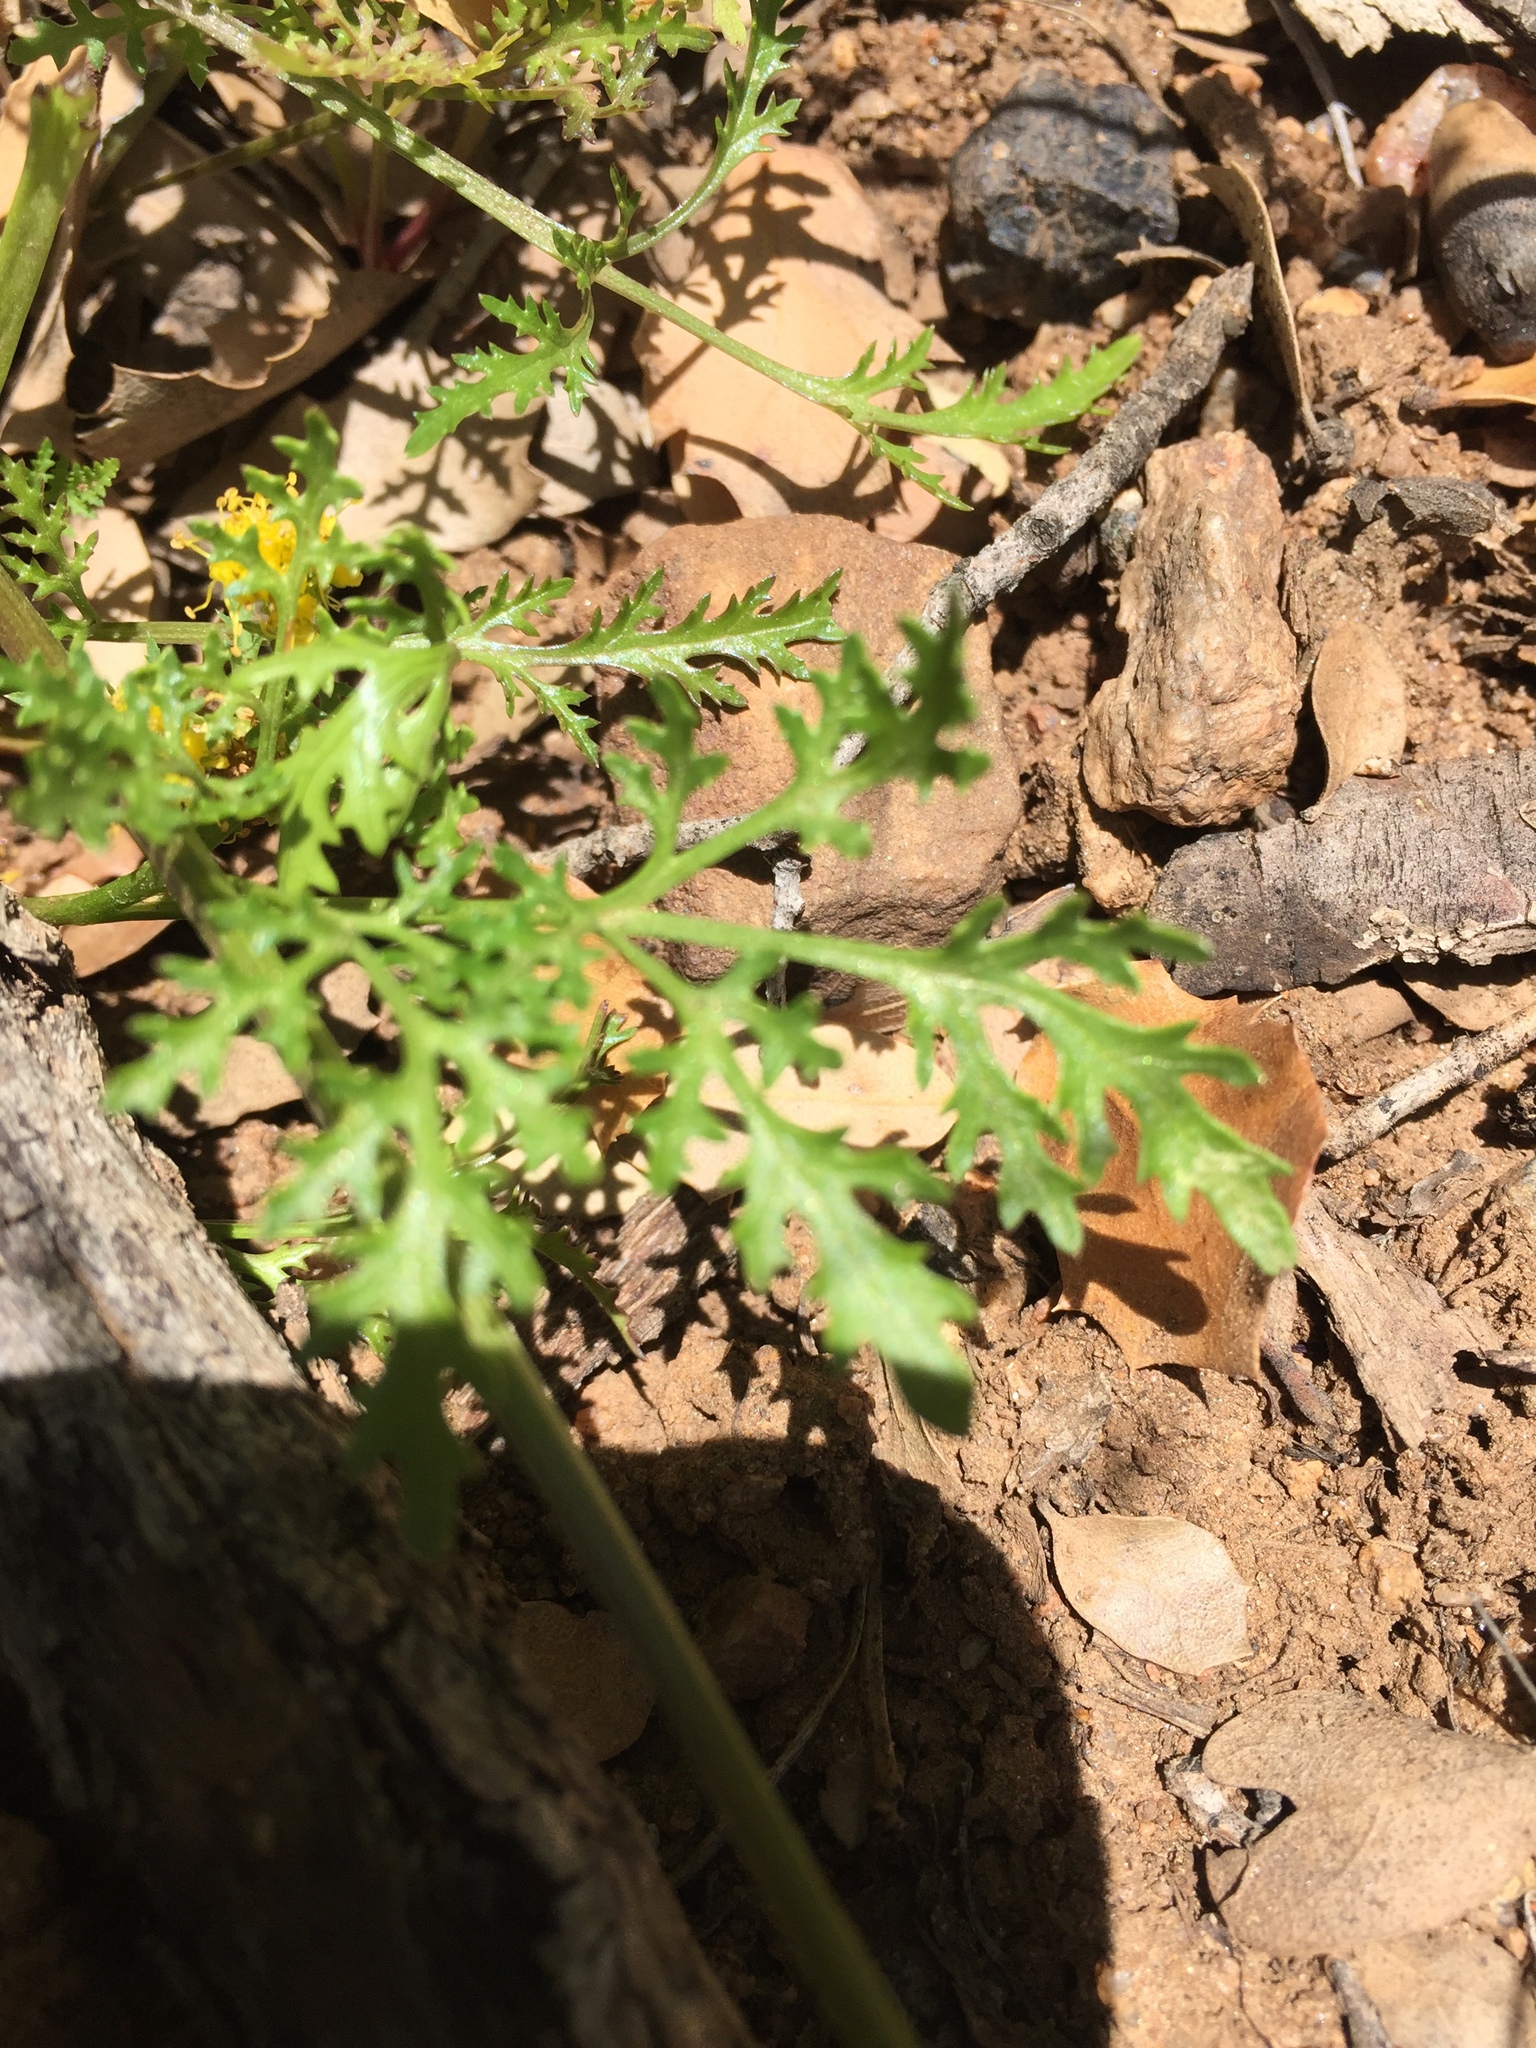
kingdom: Plantae
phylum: Tracheophyta
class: Magnoliopsida
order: Apiales
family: Apiaceae
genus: Sanicula
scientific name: Sanicula tuberosa
